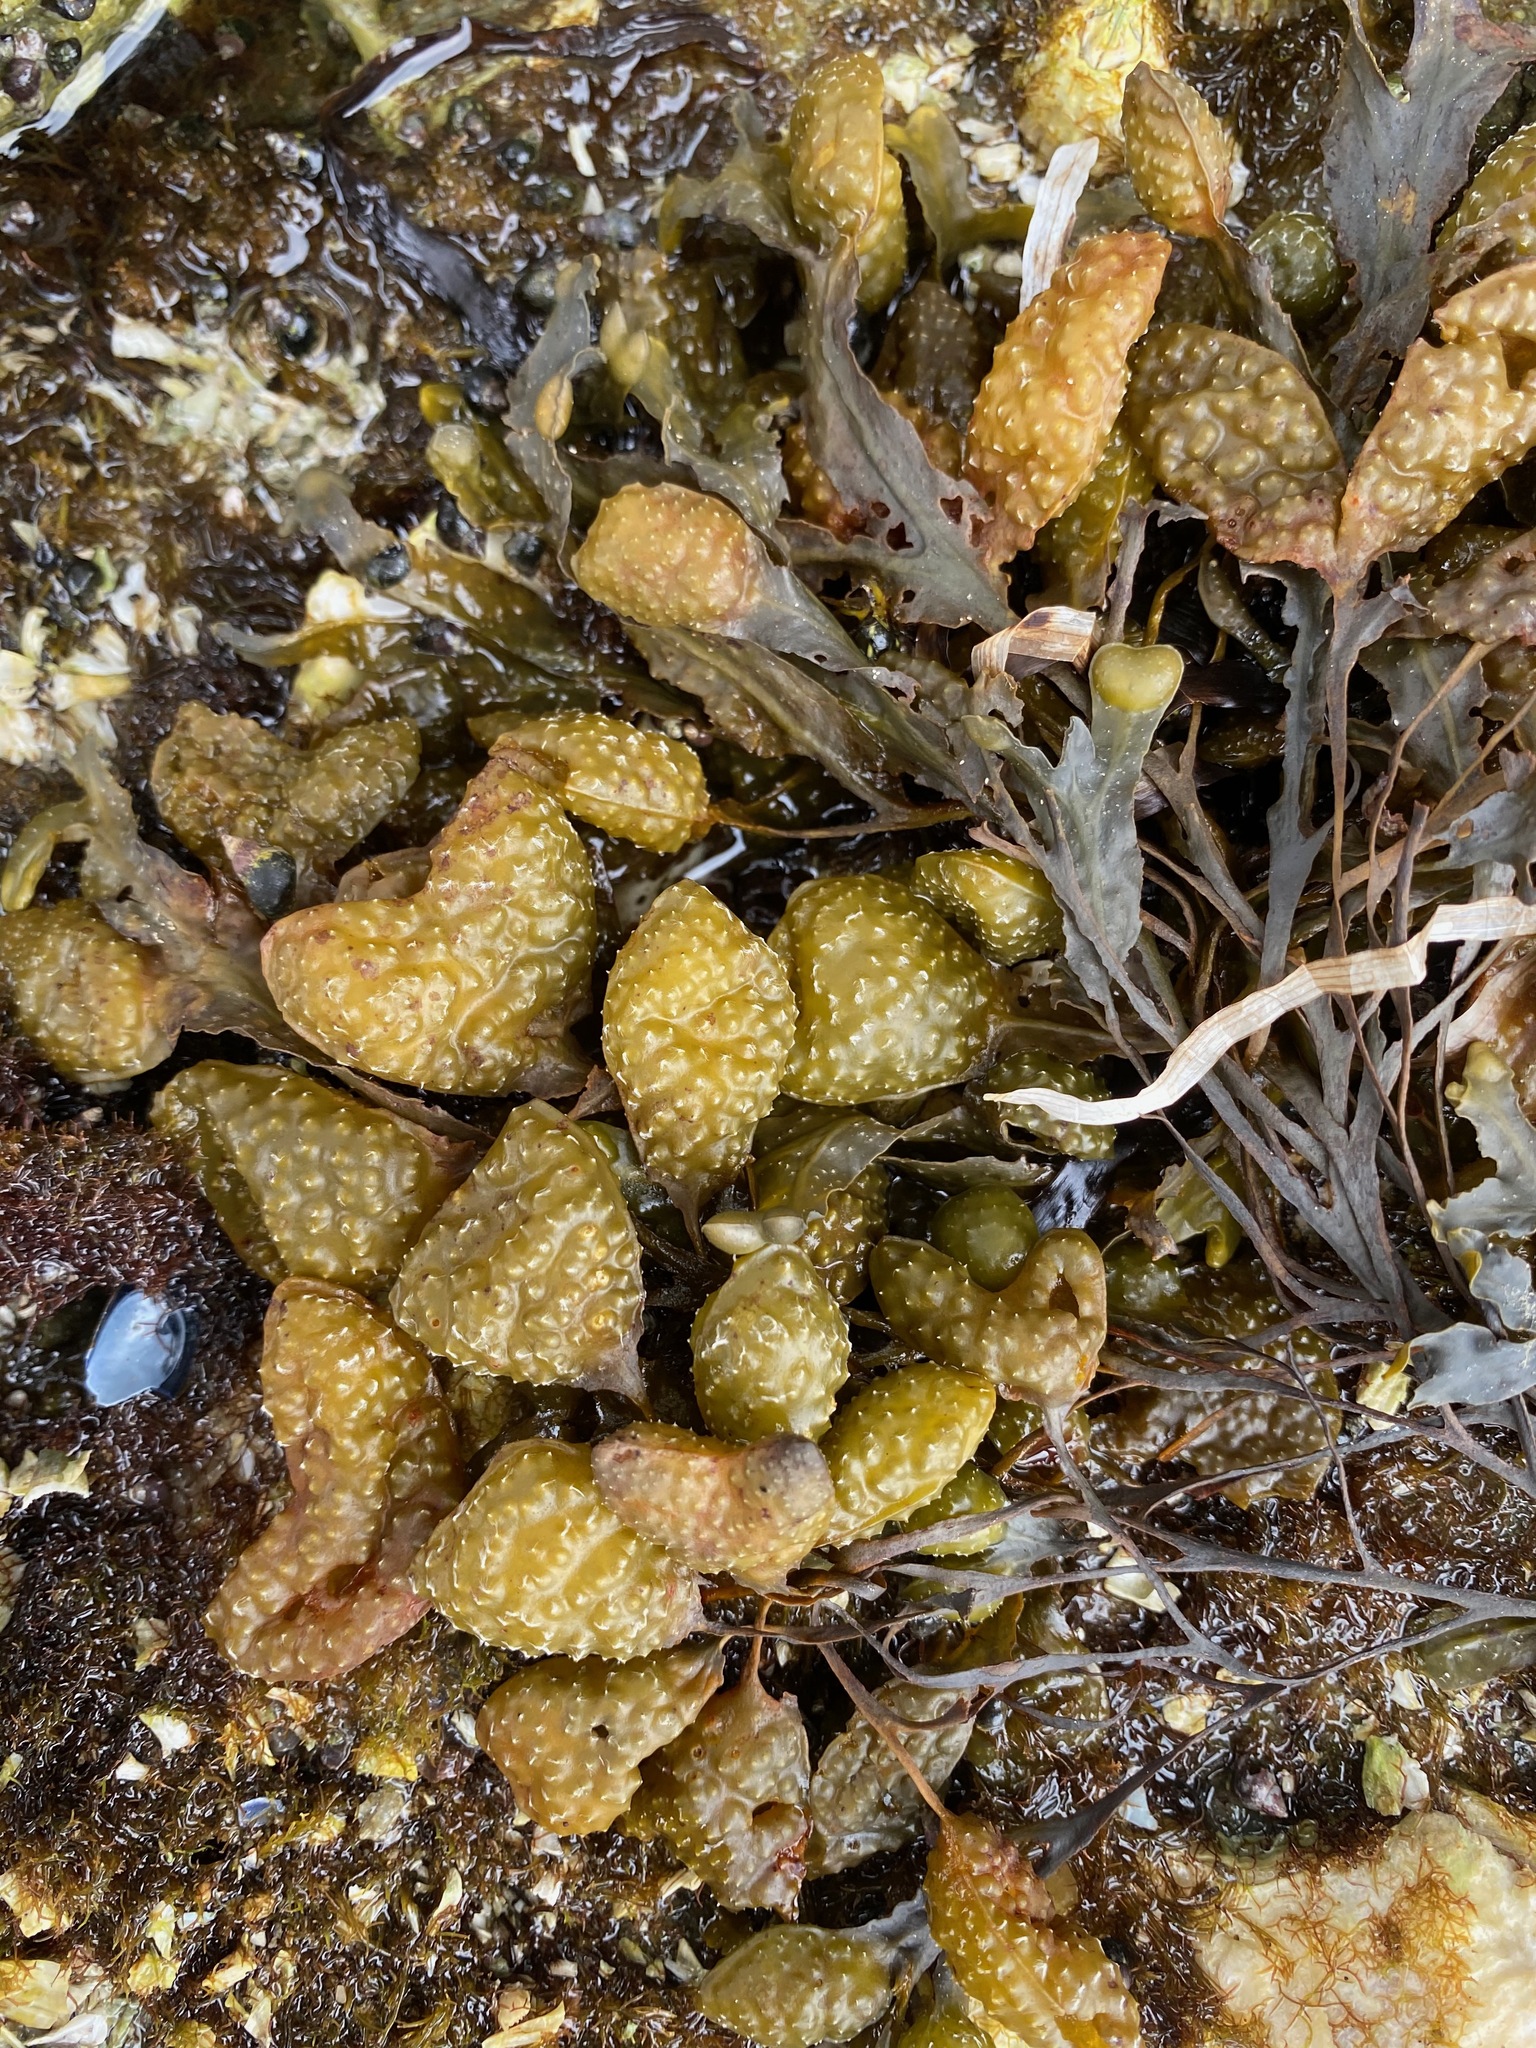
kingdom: Chromista
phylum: Ochrophyta
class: Phaeophyceae
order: Fucales
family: Fucaceae
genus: Fucus
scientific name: Fucus distichus
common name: Rockweed
